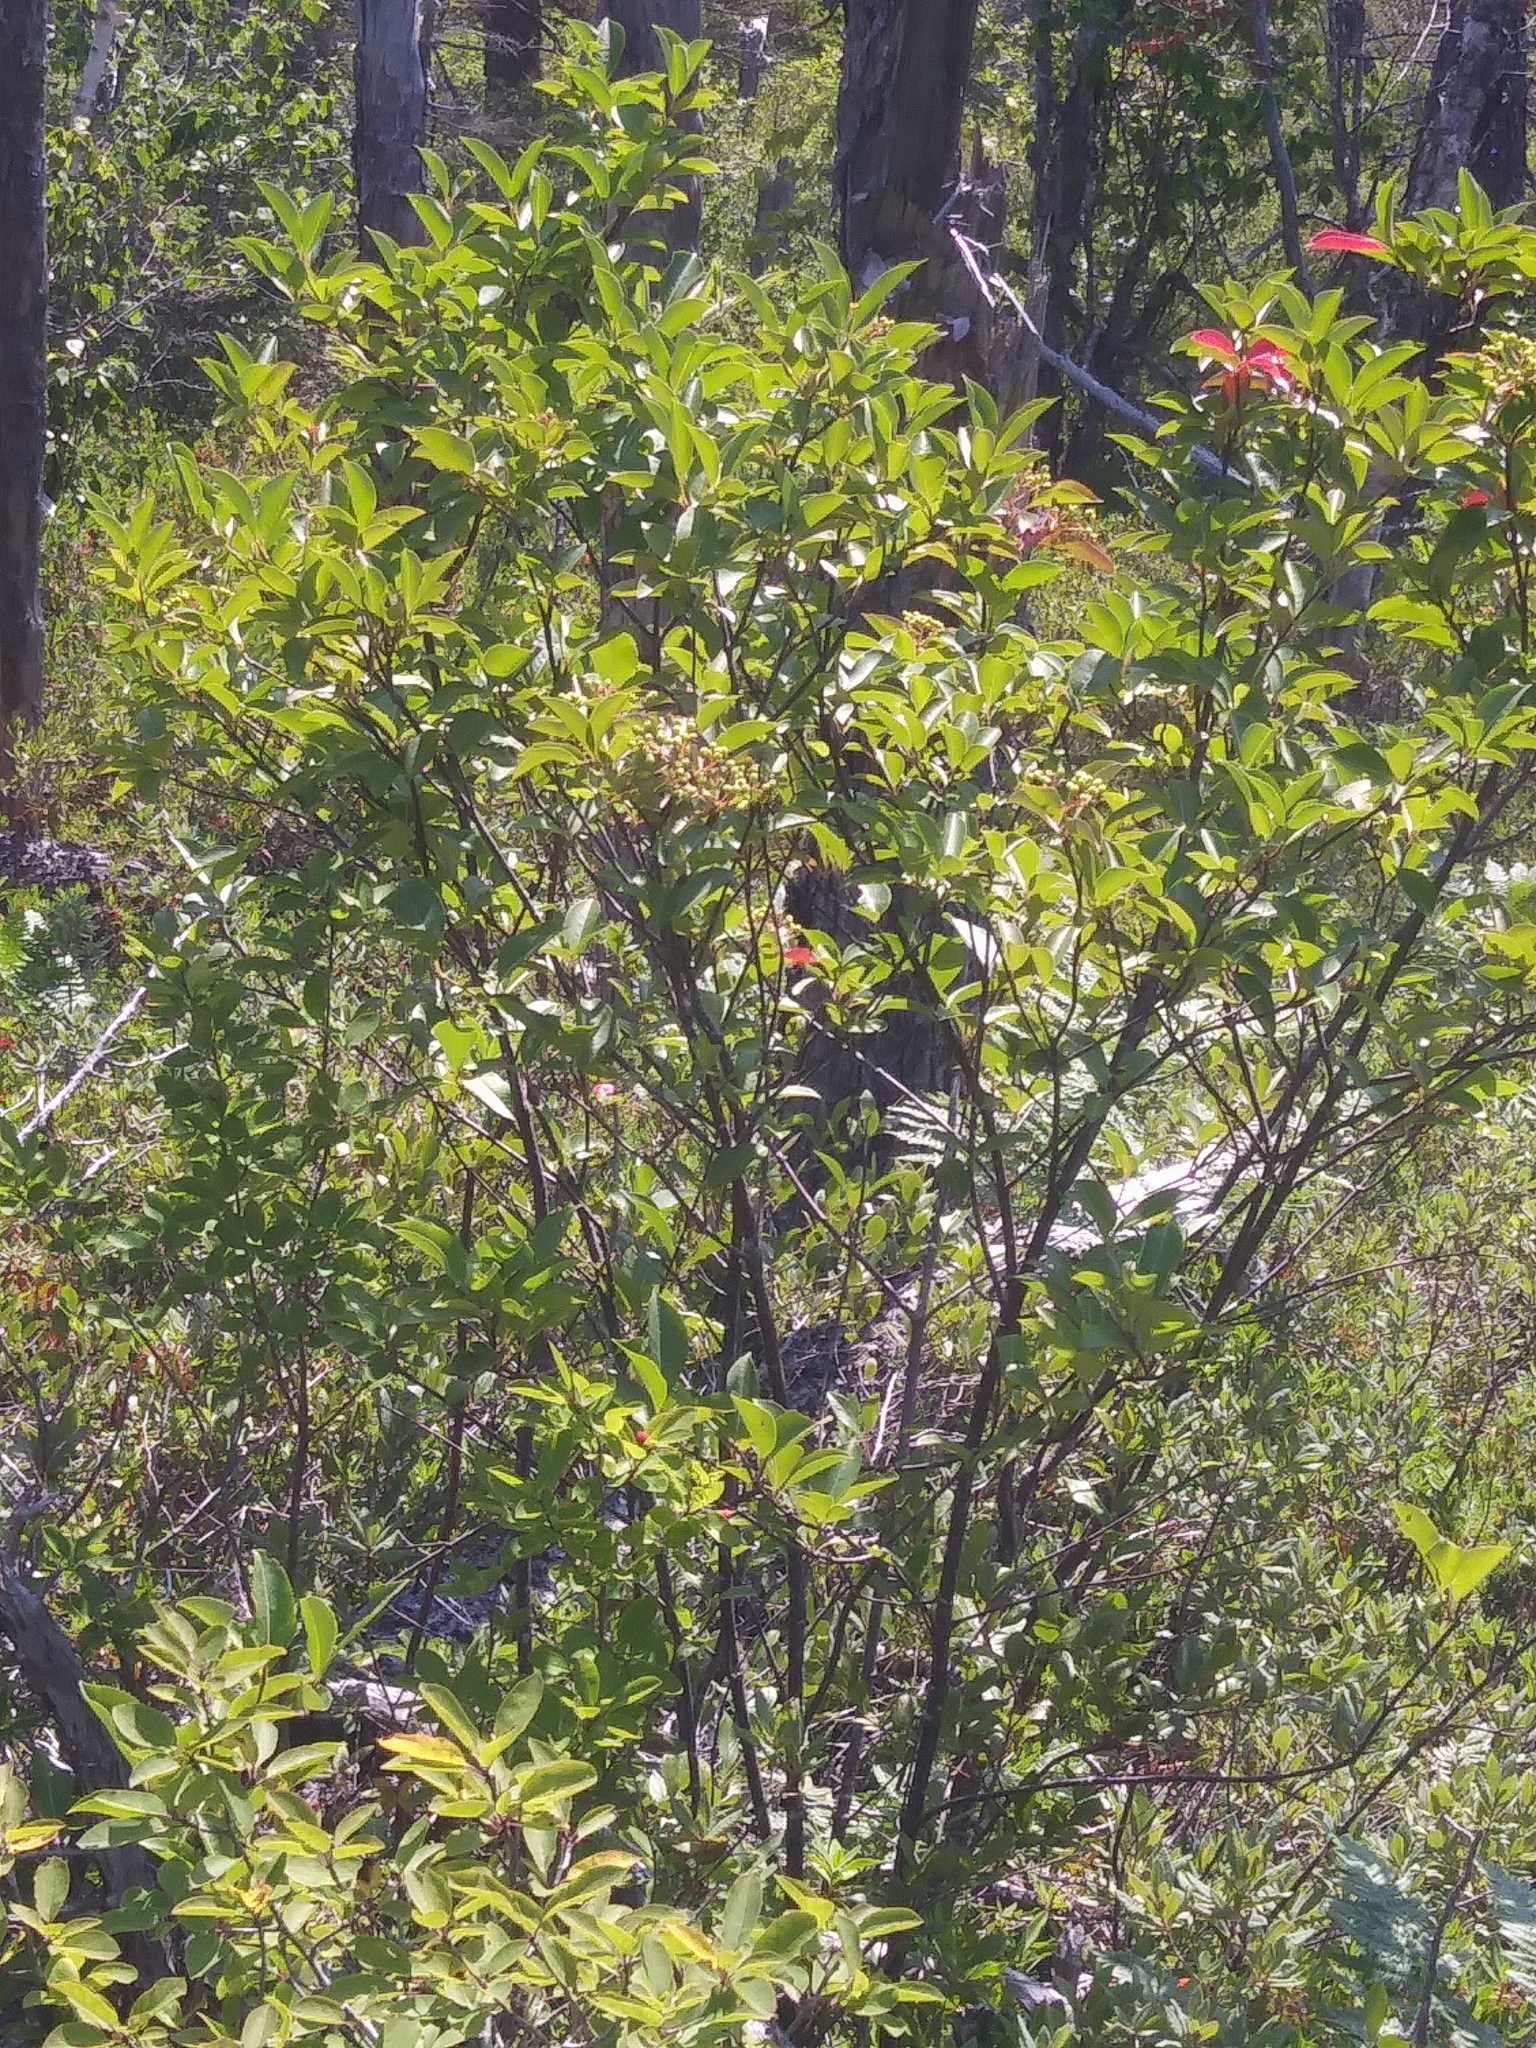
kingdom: Plantae
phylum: Tracheophyta
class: Magnoliopsida
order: Dipsacales
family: Viburnaceae
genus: Viburnum
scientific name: Viburnum cassinoides
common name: Swamp haw
